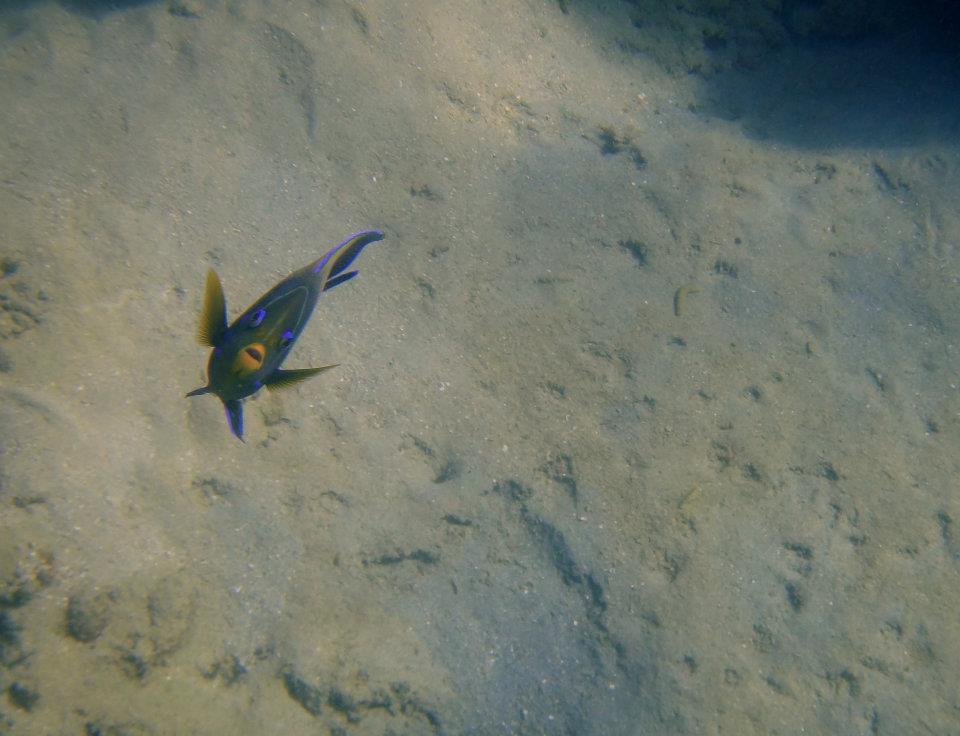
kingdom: Animalia
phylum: Chordata
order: Perciformes
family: Pomacanthidae
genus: Pomacanthus
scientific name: Pomacanthus semicirculatus
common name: Semicircle angelfish
